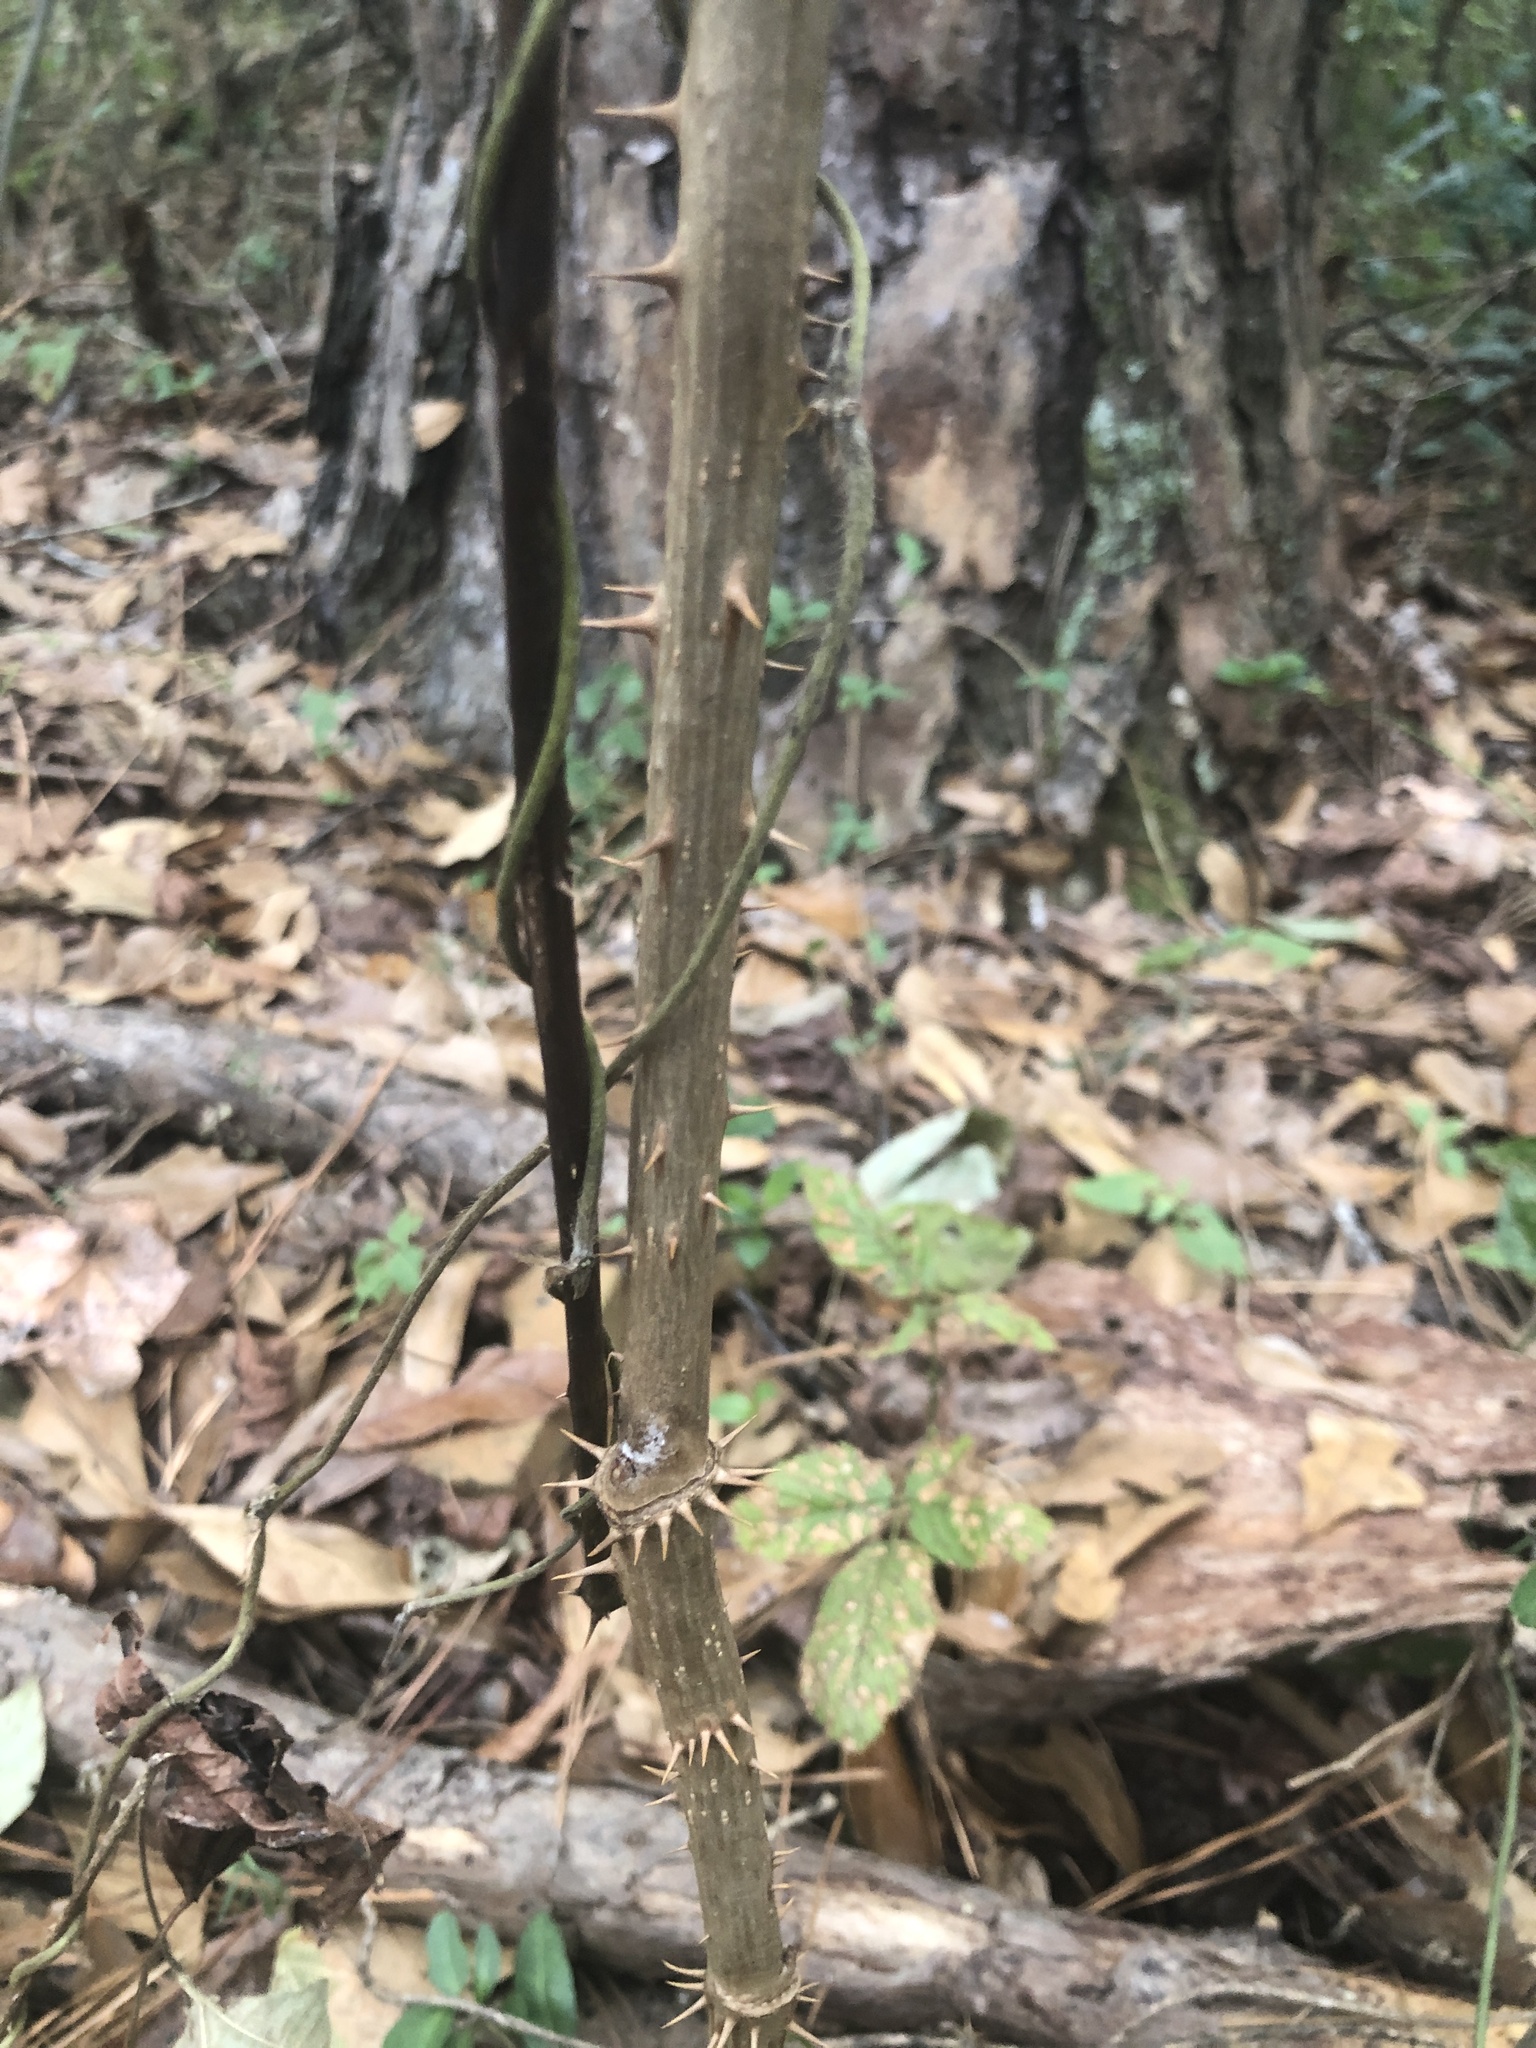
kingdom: Plantae
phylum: Tracheophyta
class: Magnoliopsida
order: Apiales
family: Araliaceae
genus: Aralia
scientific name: Aralia spinosa
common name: Hercules'-club
